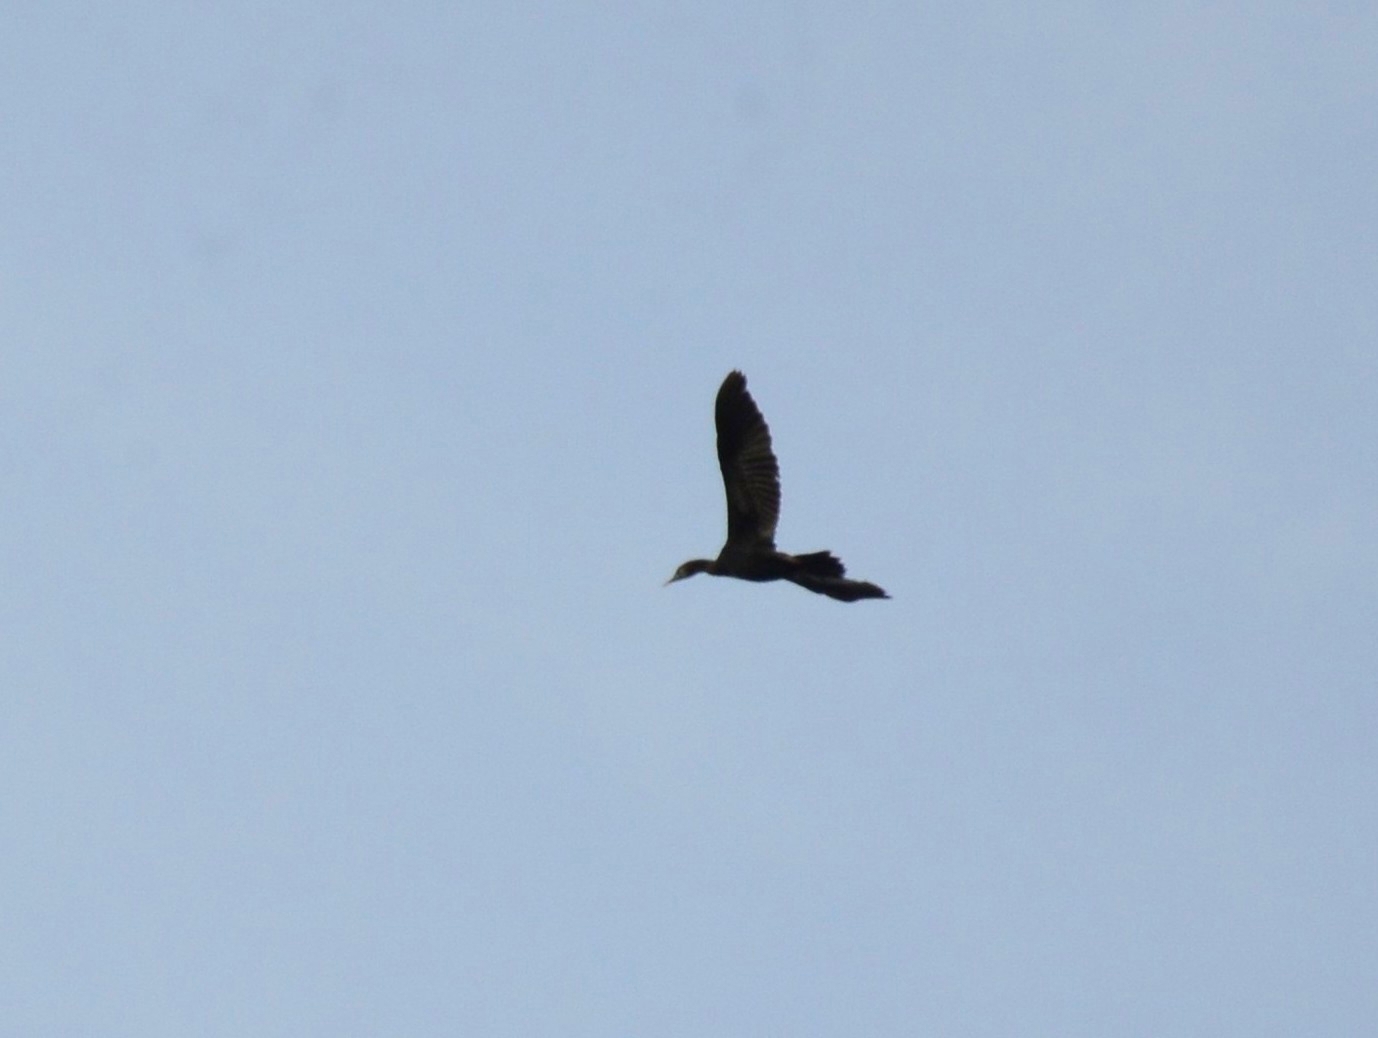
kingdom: Animalia
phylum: Chordata
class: Aves
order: Suliformes
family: Phalacrocoracidae
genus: Phalacrocorax
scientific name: Phalacrocorax fuscicollis
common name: Indian cormorant
